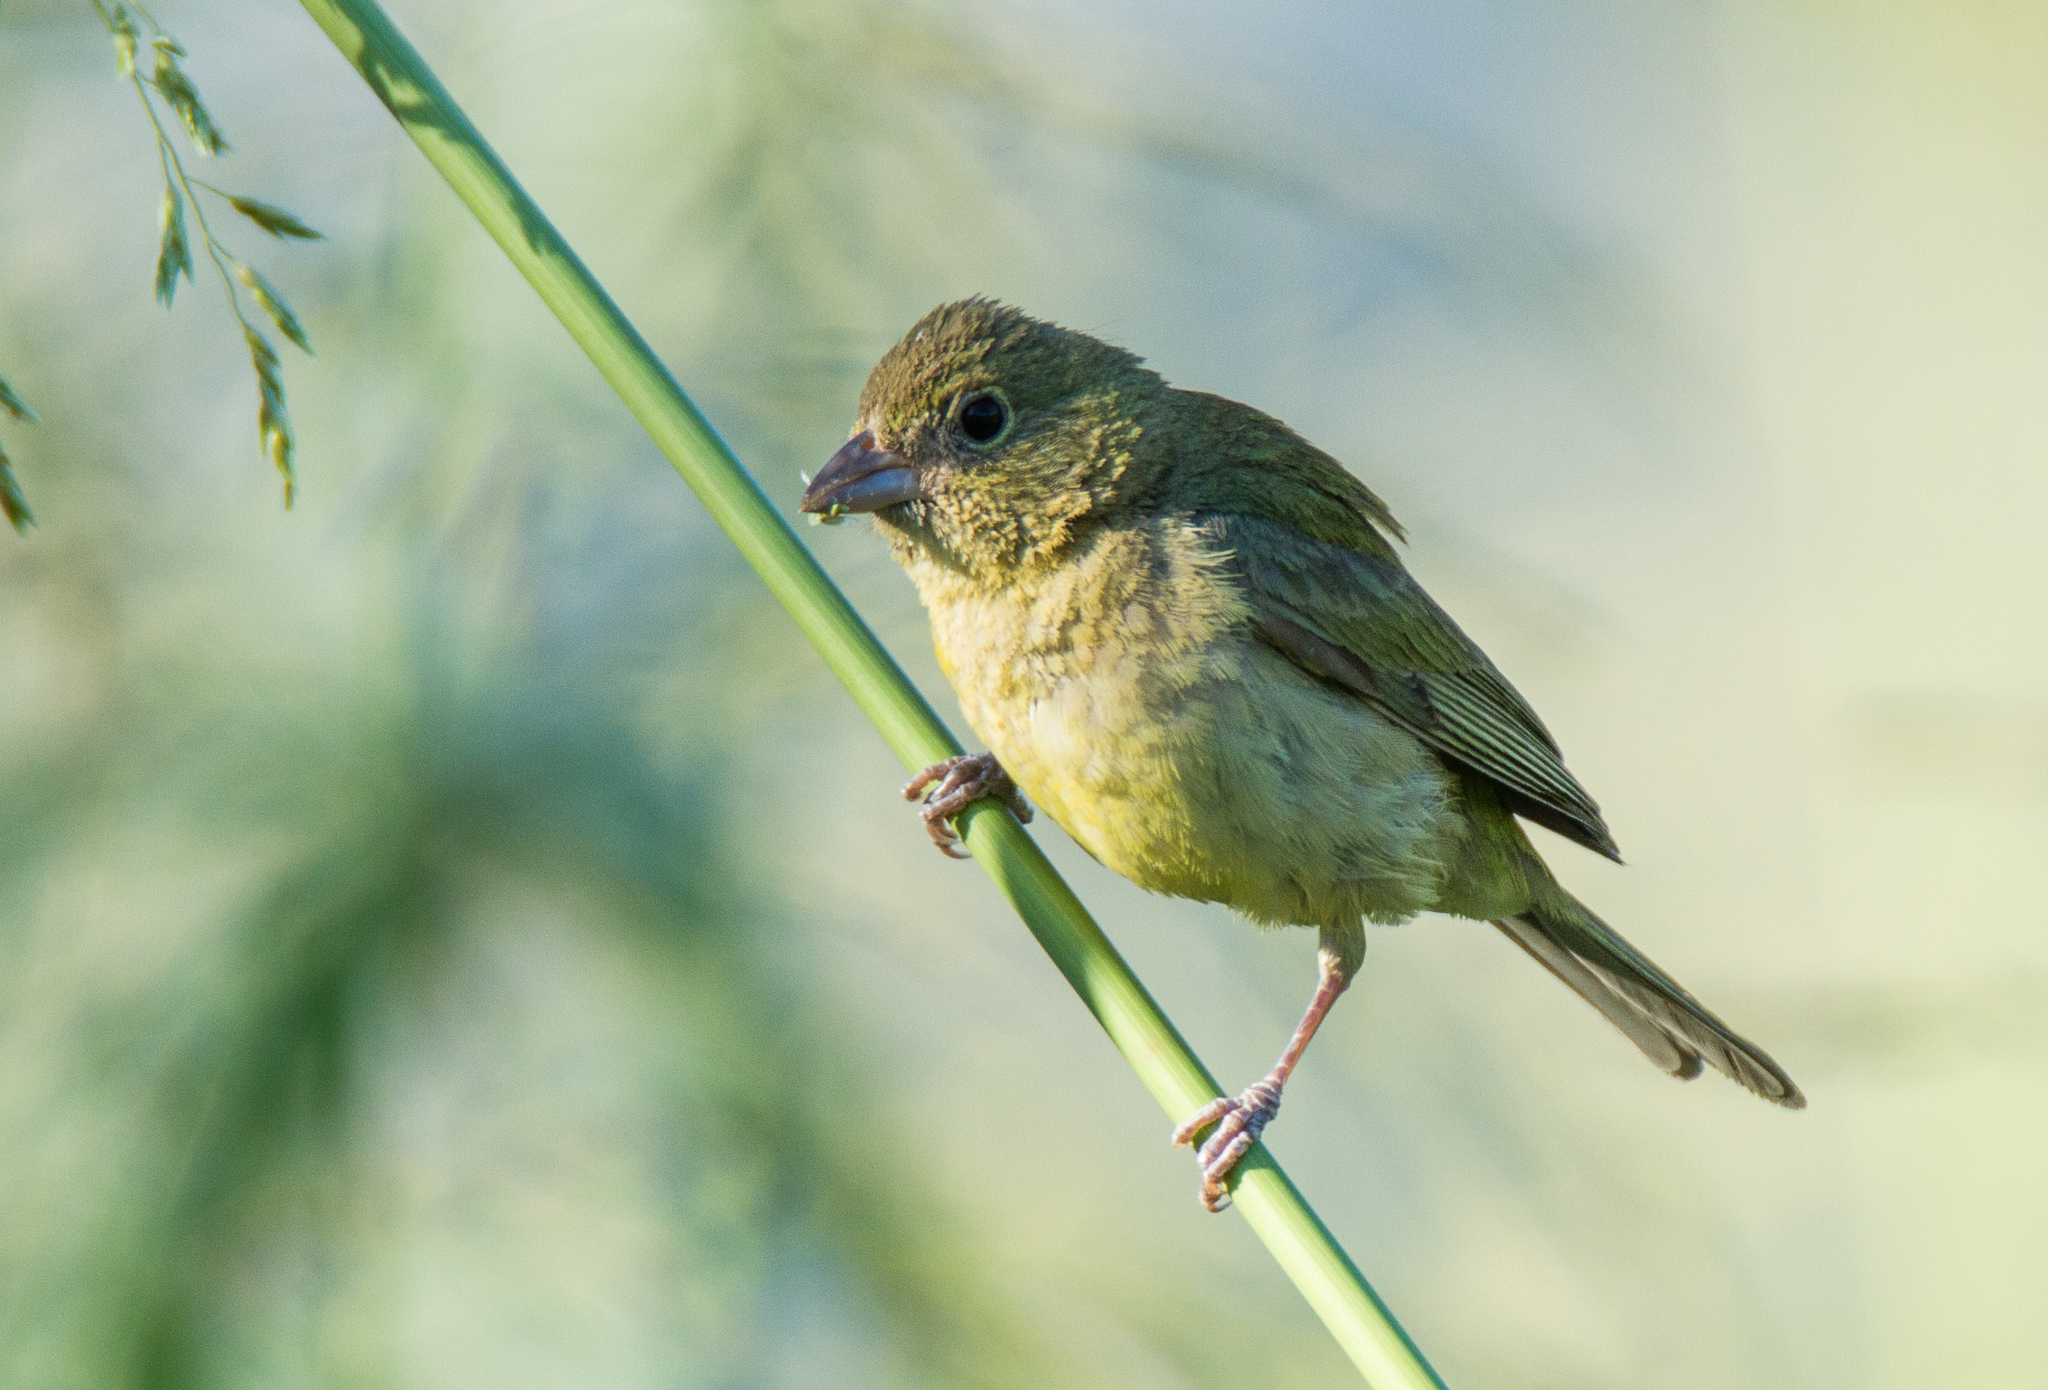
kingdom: Animalia
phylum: Chordata
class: Aves
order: Passeriformes
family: Cardinalidae
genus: Passerina
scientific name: Passerina ciris
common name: Painted bunting
